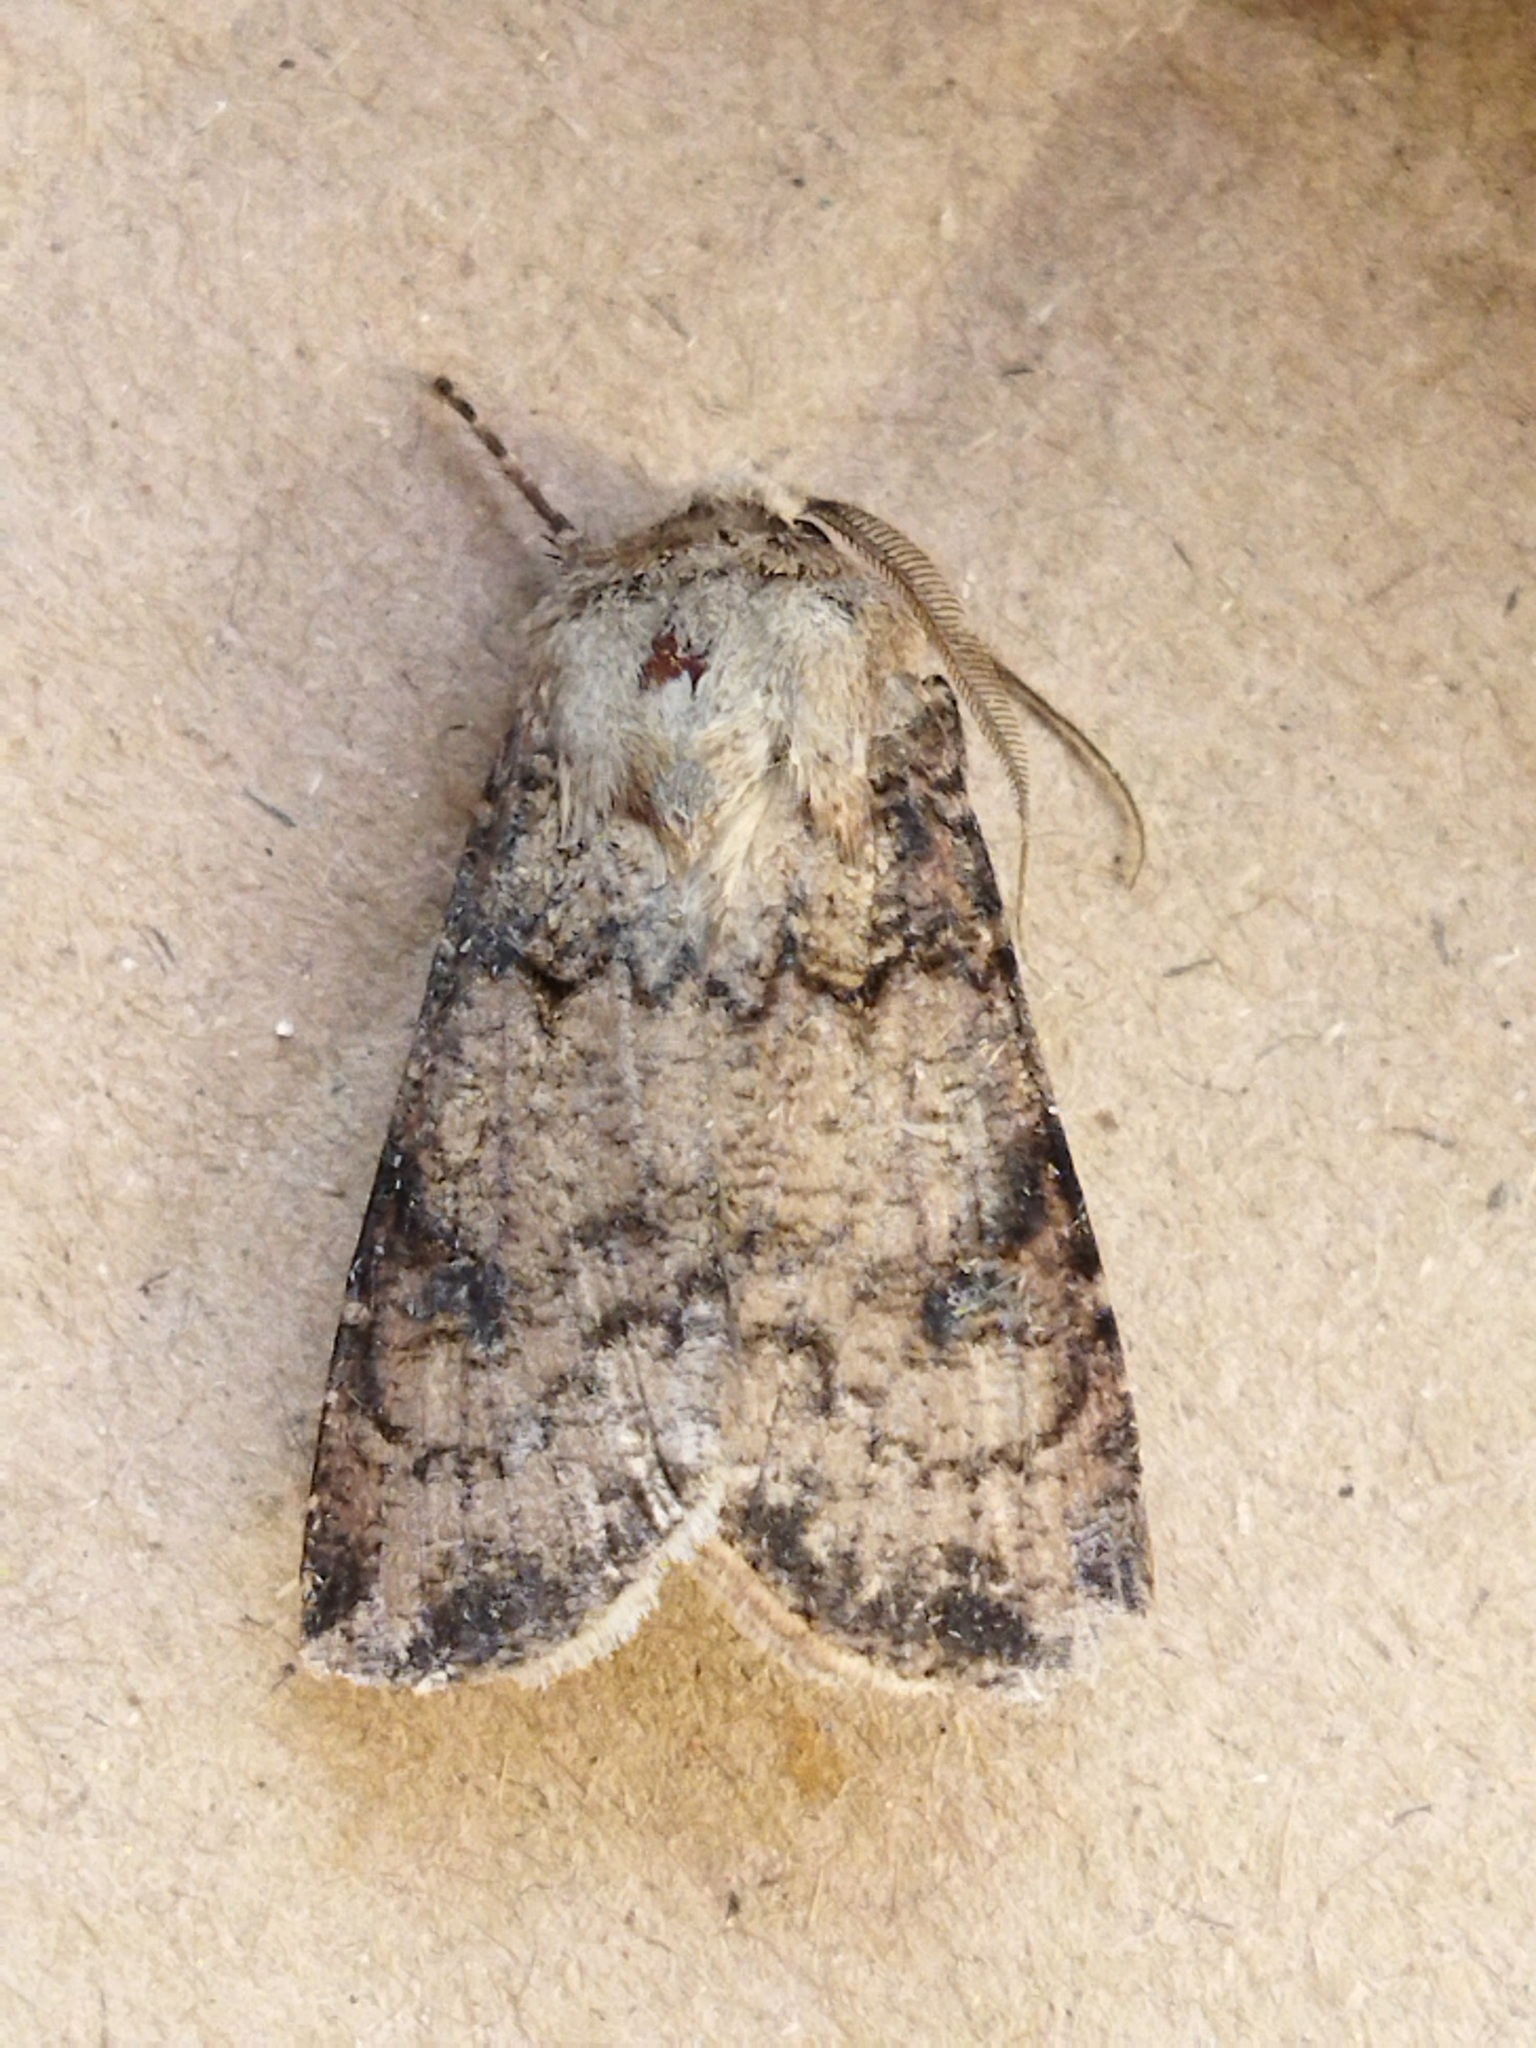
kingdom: Animalia
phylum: Arthropoda
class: Insecta
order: Lepidoptera
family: Noctuidae
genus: Agrotis
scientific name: Agrotis clavis
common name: Heart and club
